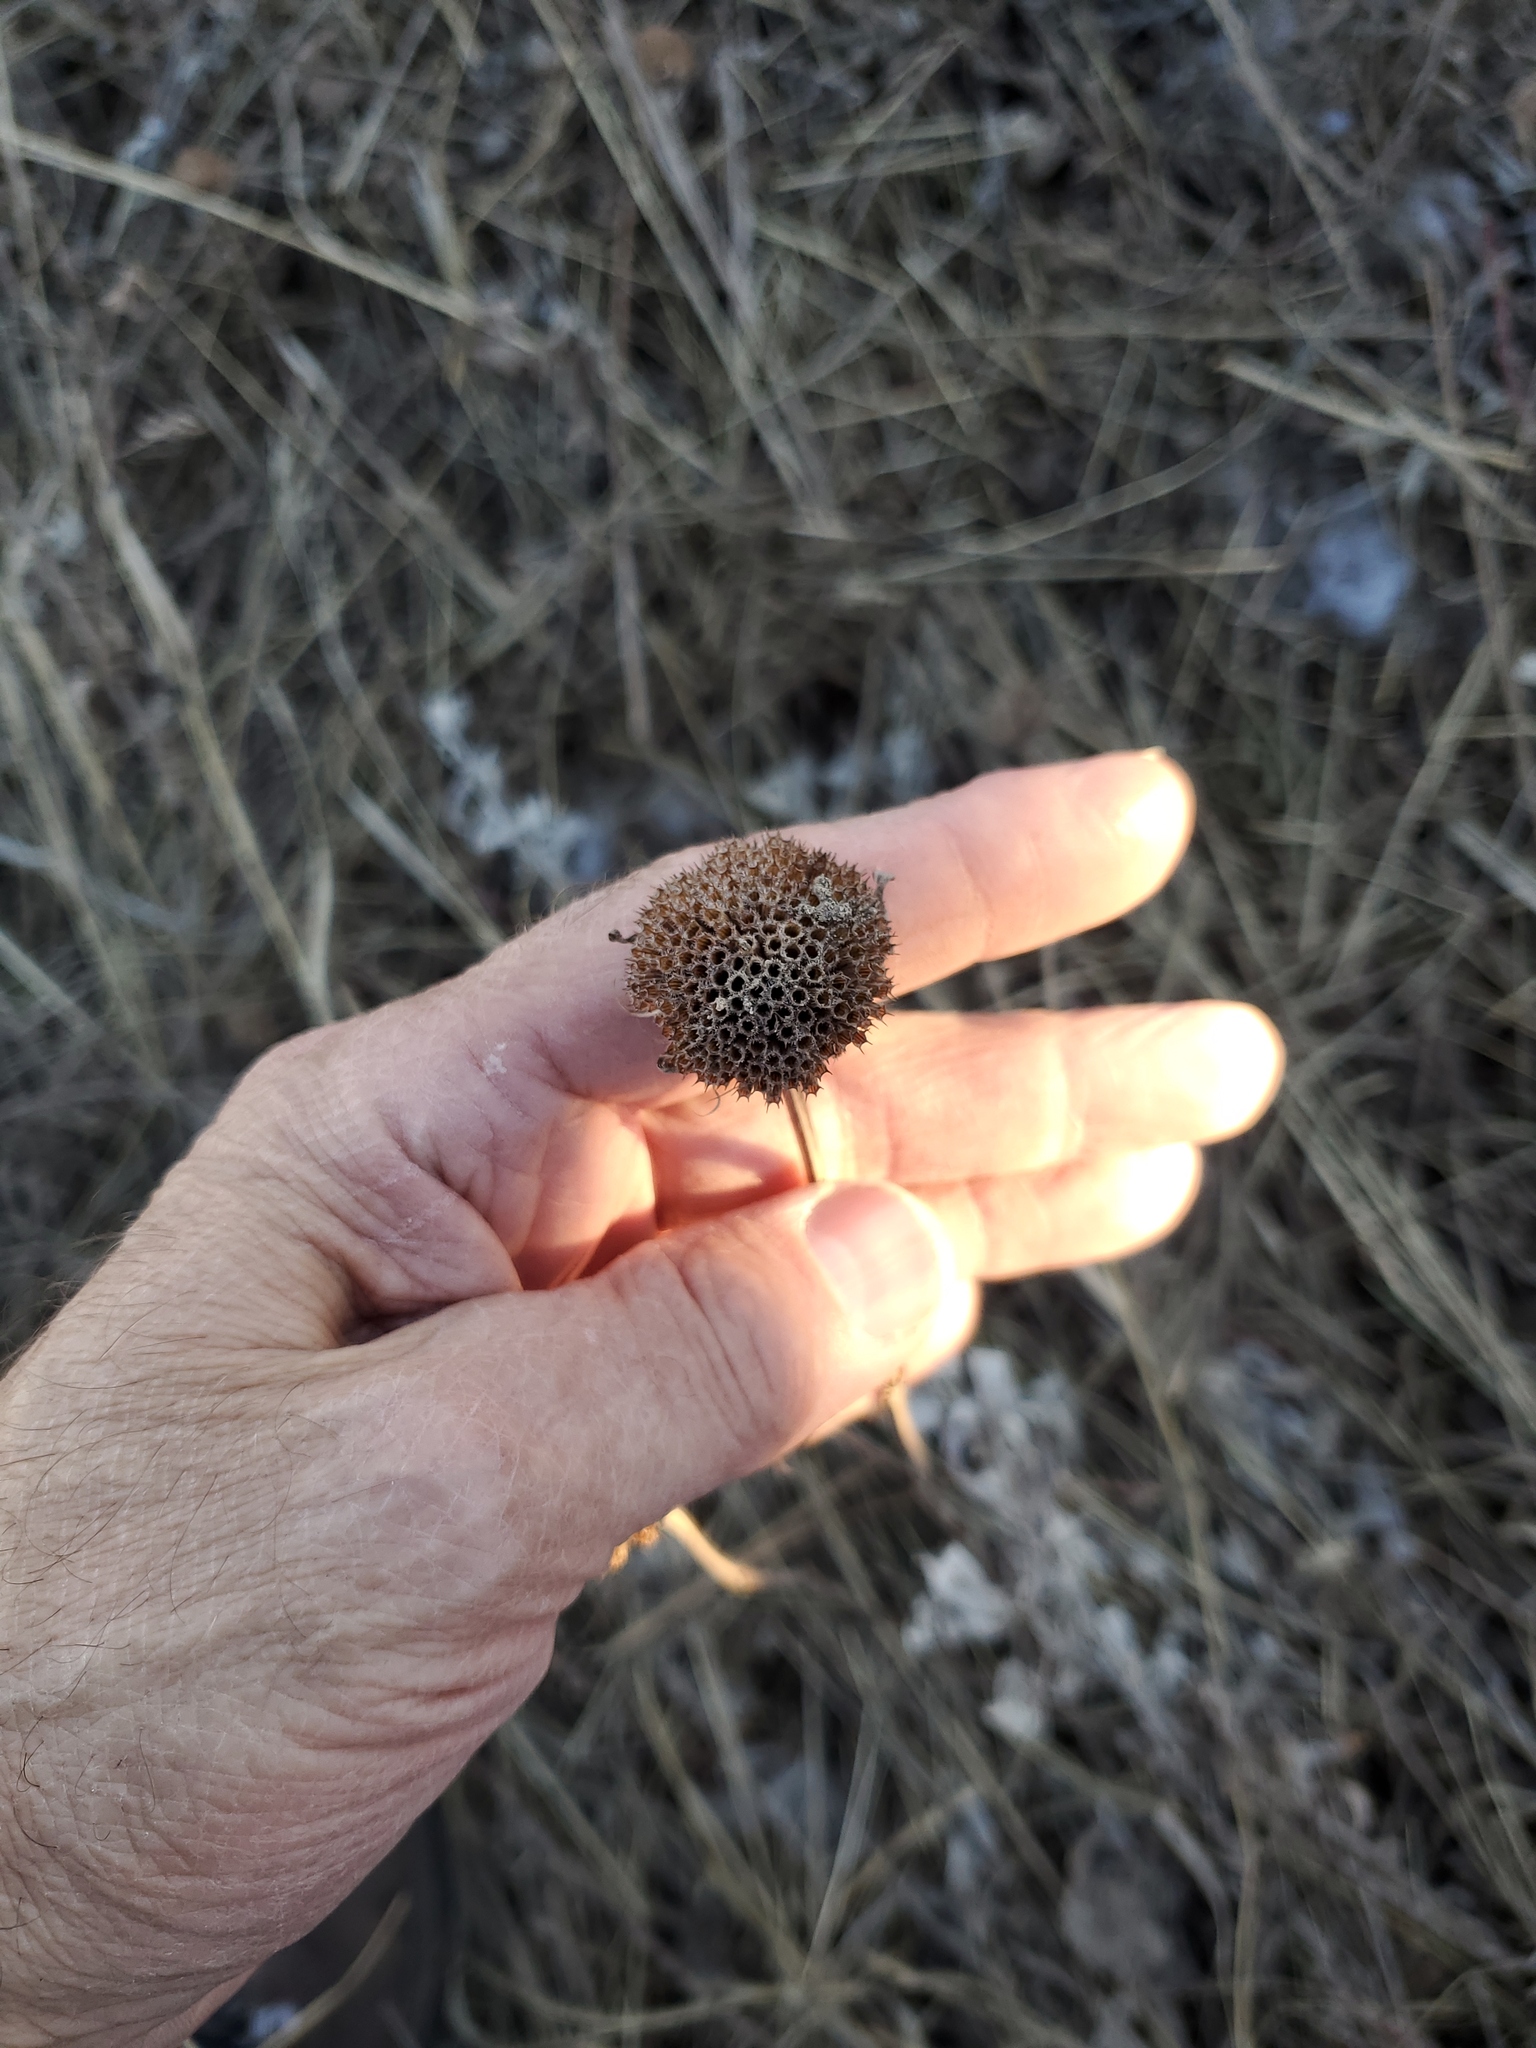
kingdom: Plantae
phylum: Tracheophyta
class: Magnoliopsida
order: Lamiales
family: Lamiaceae
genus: Monarda
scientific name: Monarda fistulosa
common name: Purple beebalm
